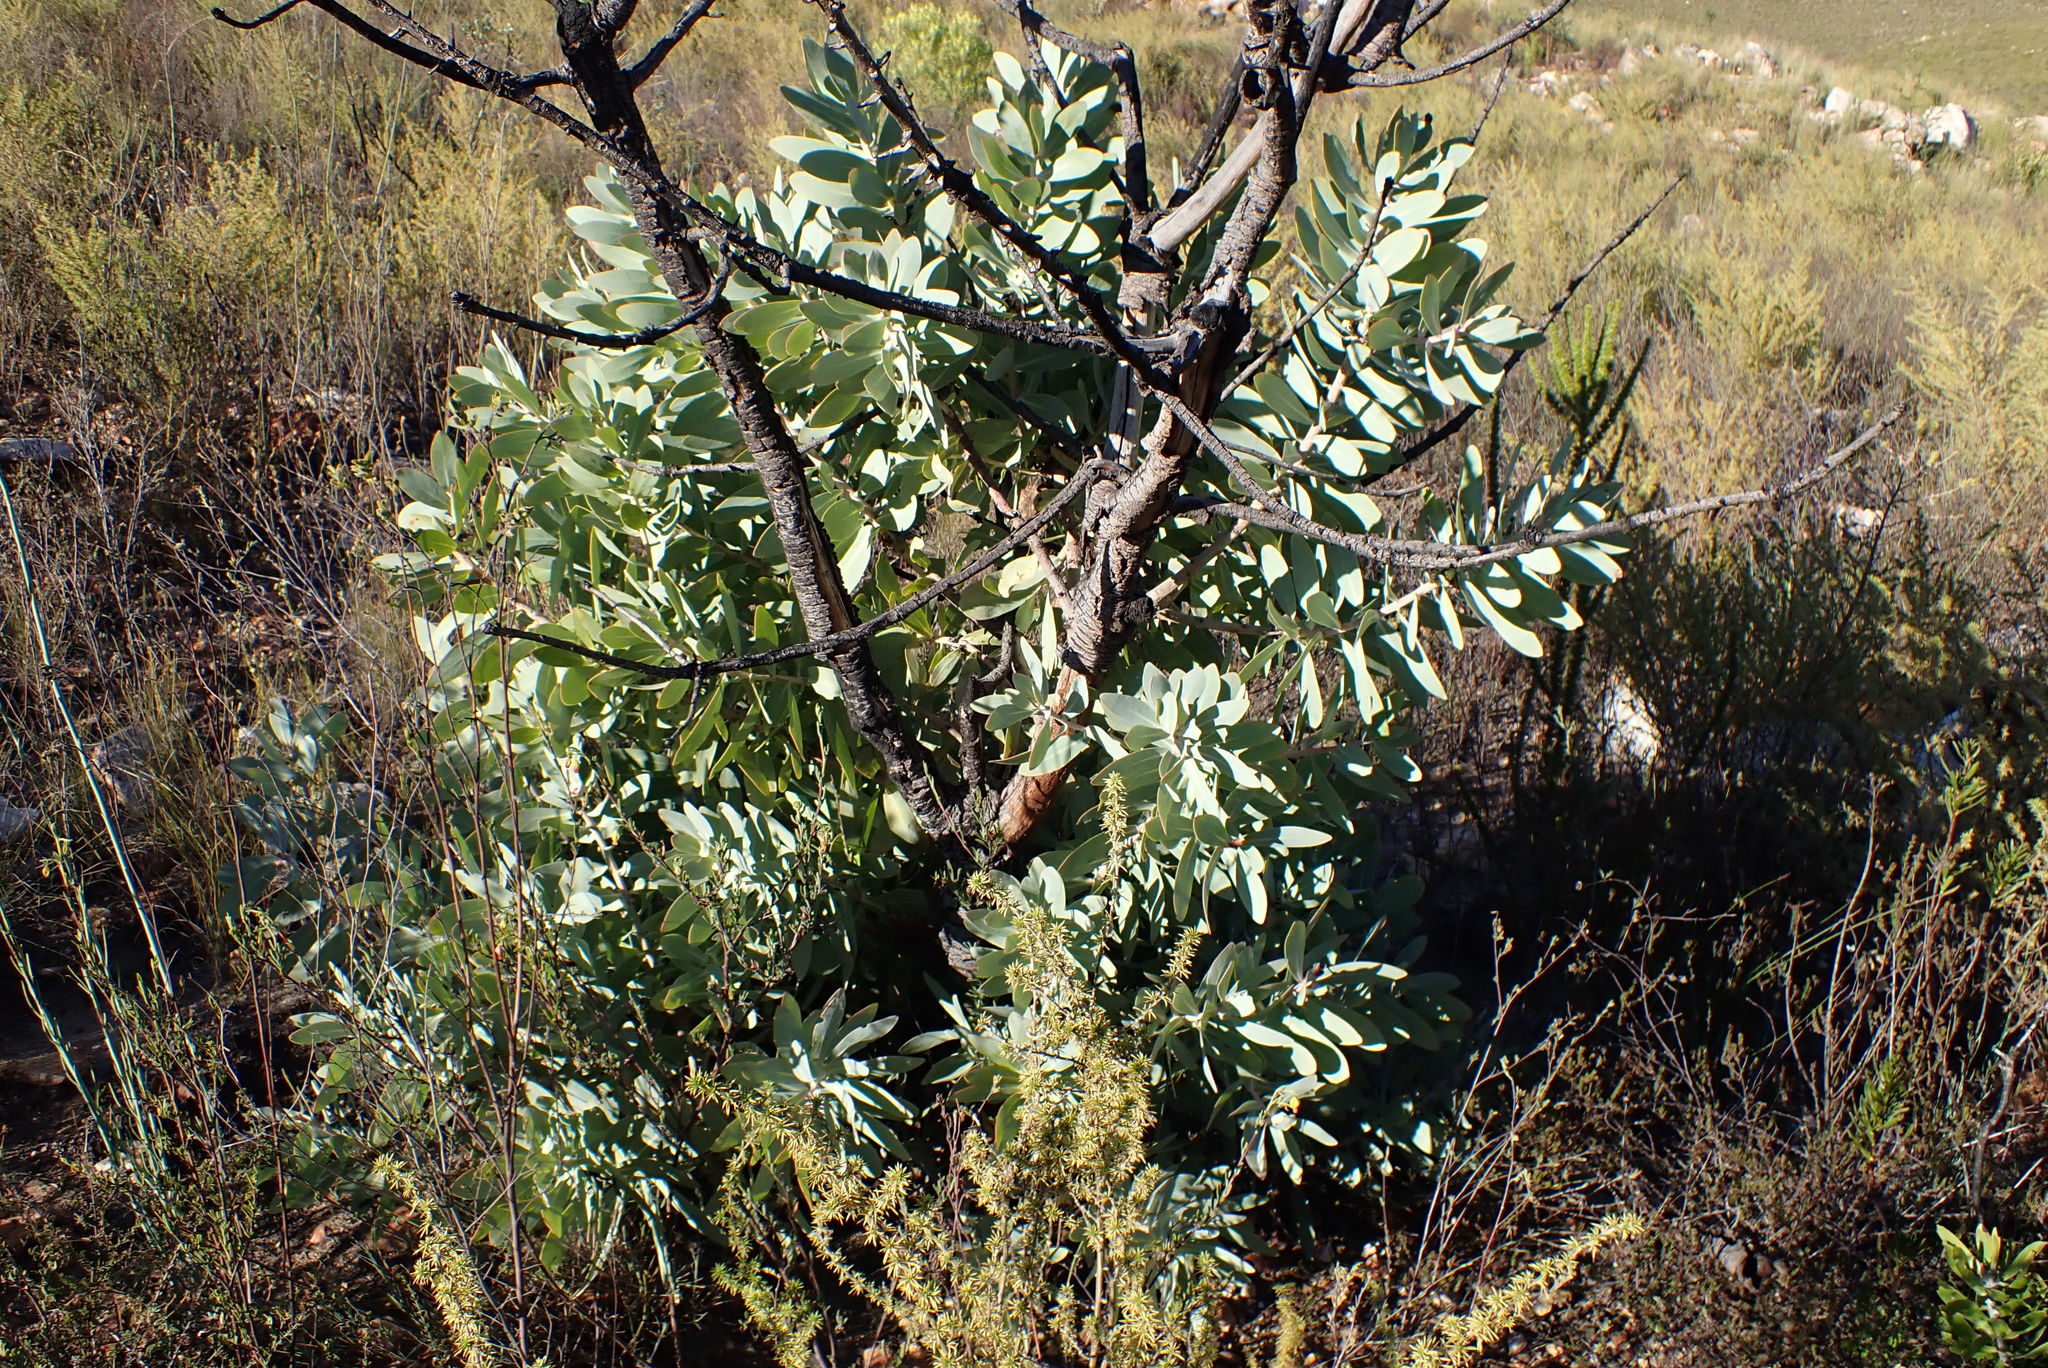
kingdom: Plantae
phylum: Tracheophyta
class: Magnoliopsida
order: Proteales
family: Proteaceae
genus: Protea
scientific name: Protea nitida
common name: Tree protea
